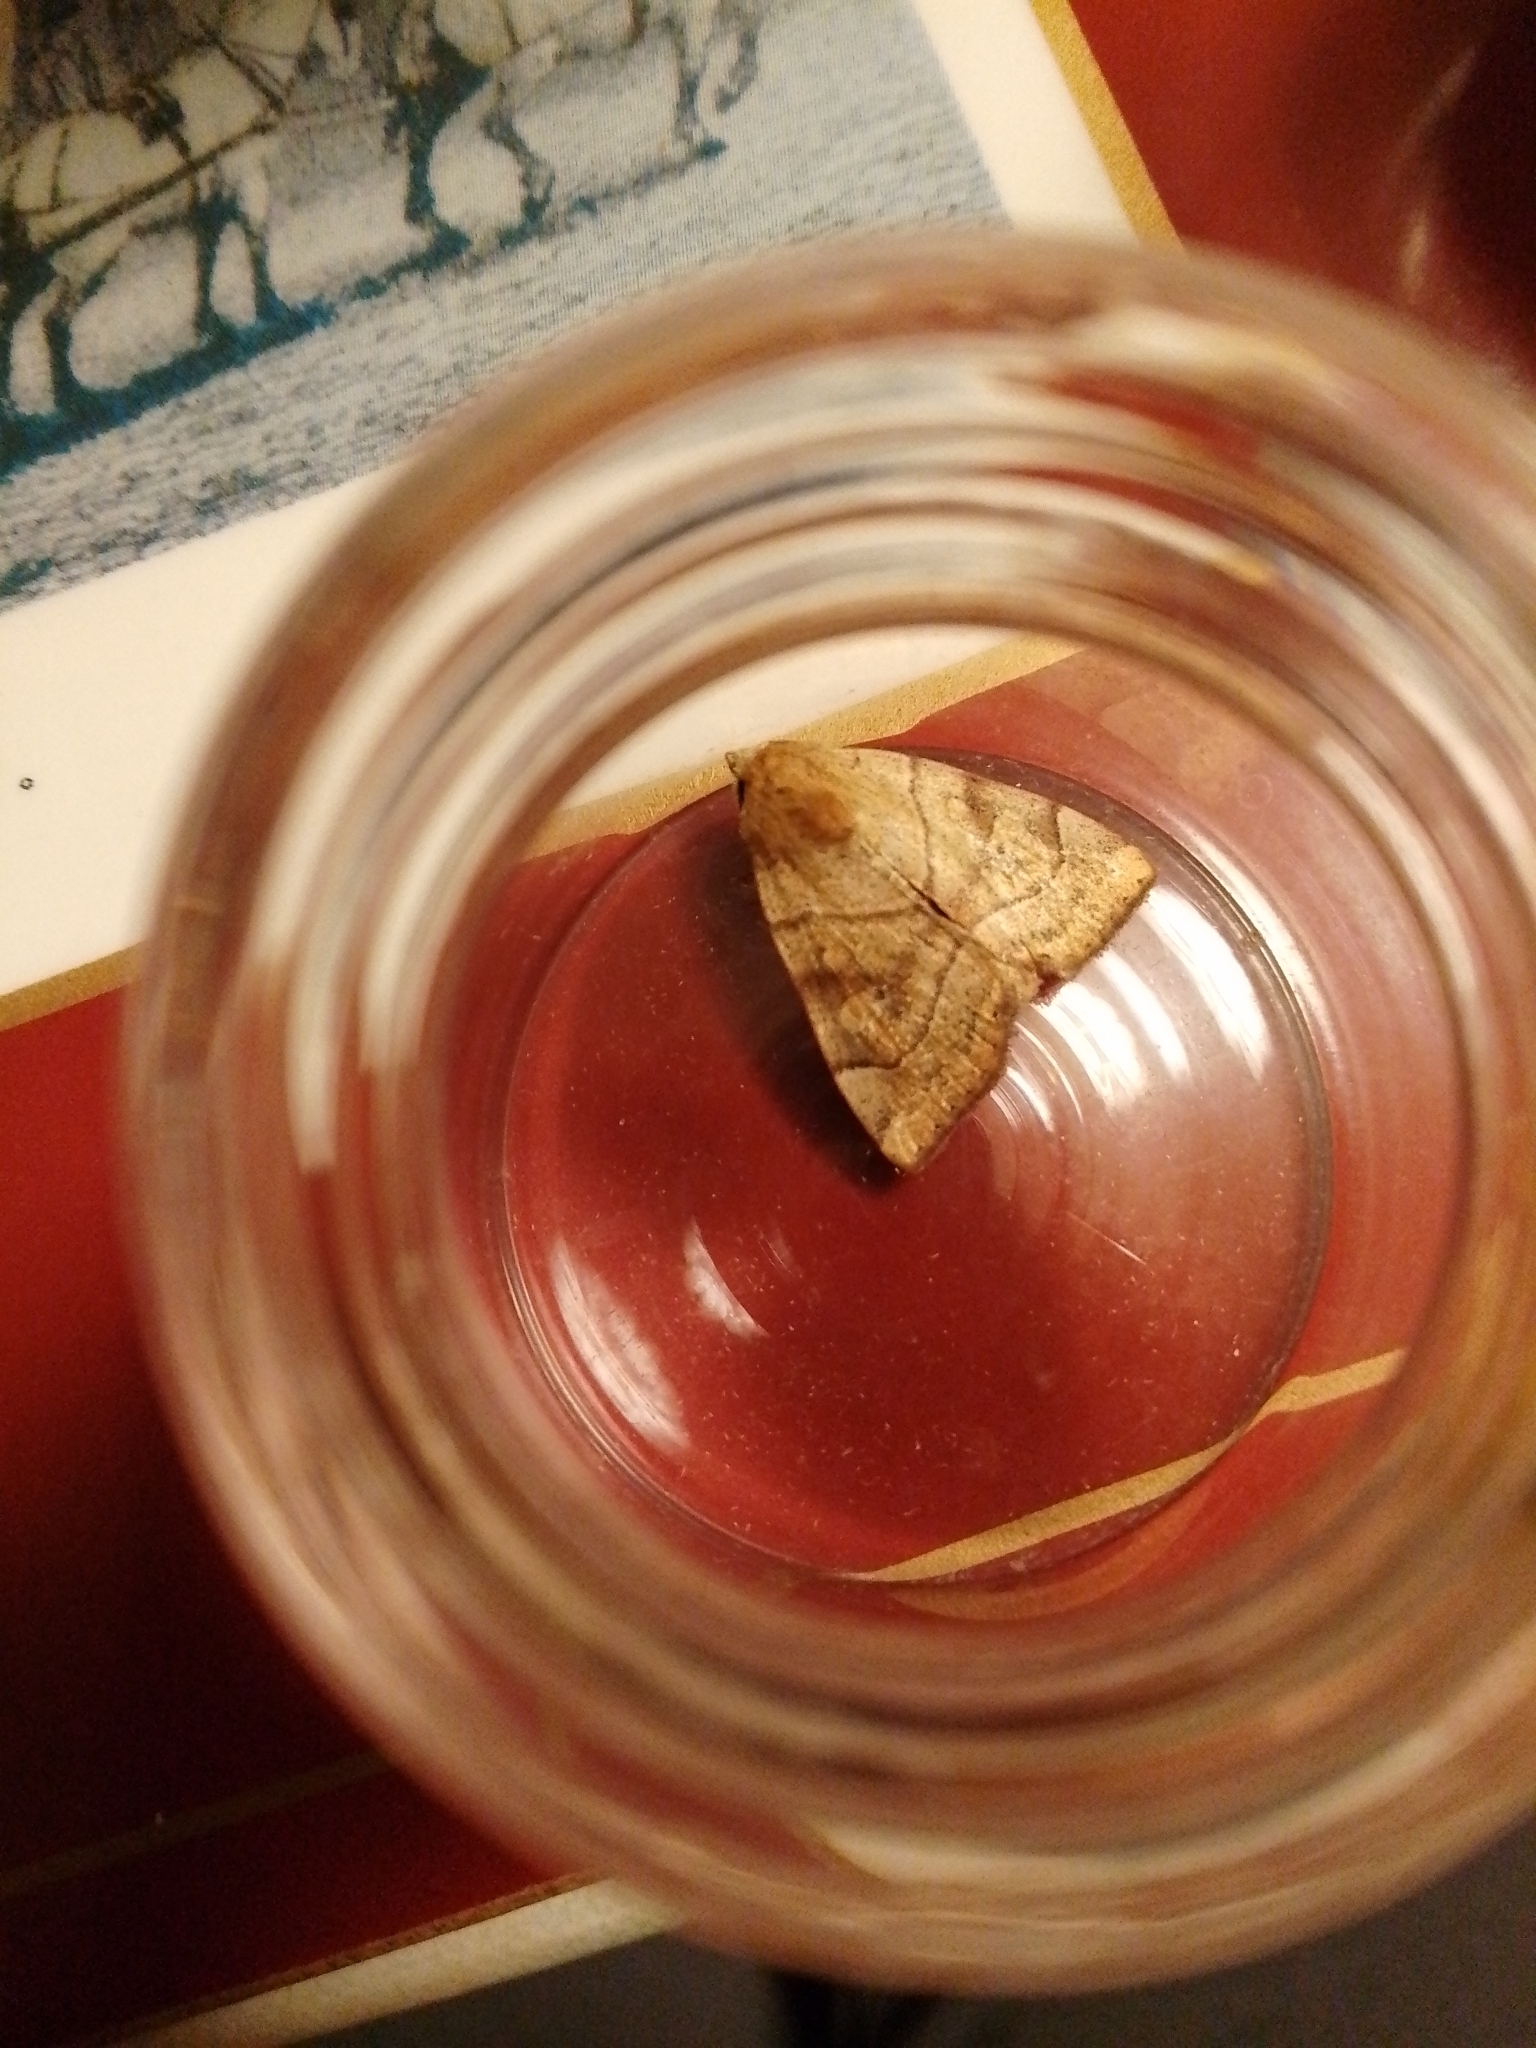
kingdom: Animalia
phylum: Arthropoda
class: Insecta
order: Lepidoptera
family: Noctuidae
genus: Cosmia
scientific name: Cosmia trapezina
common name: Dun-bar
